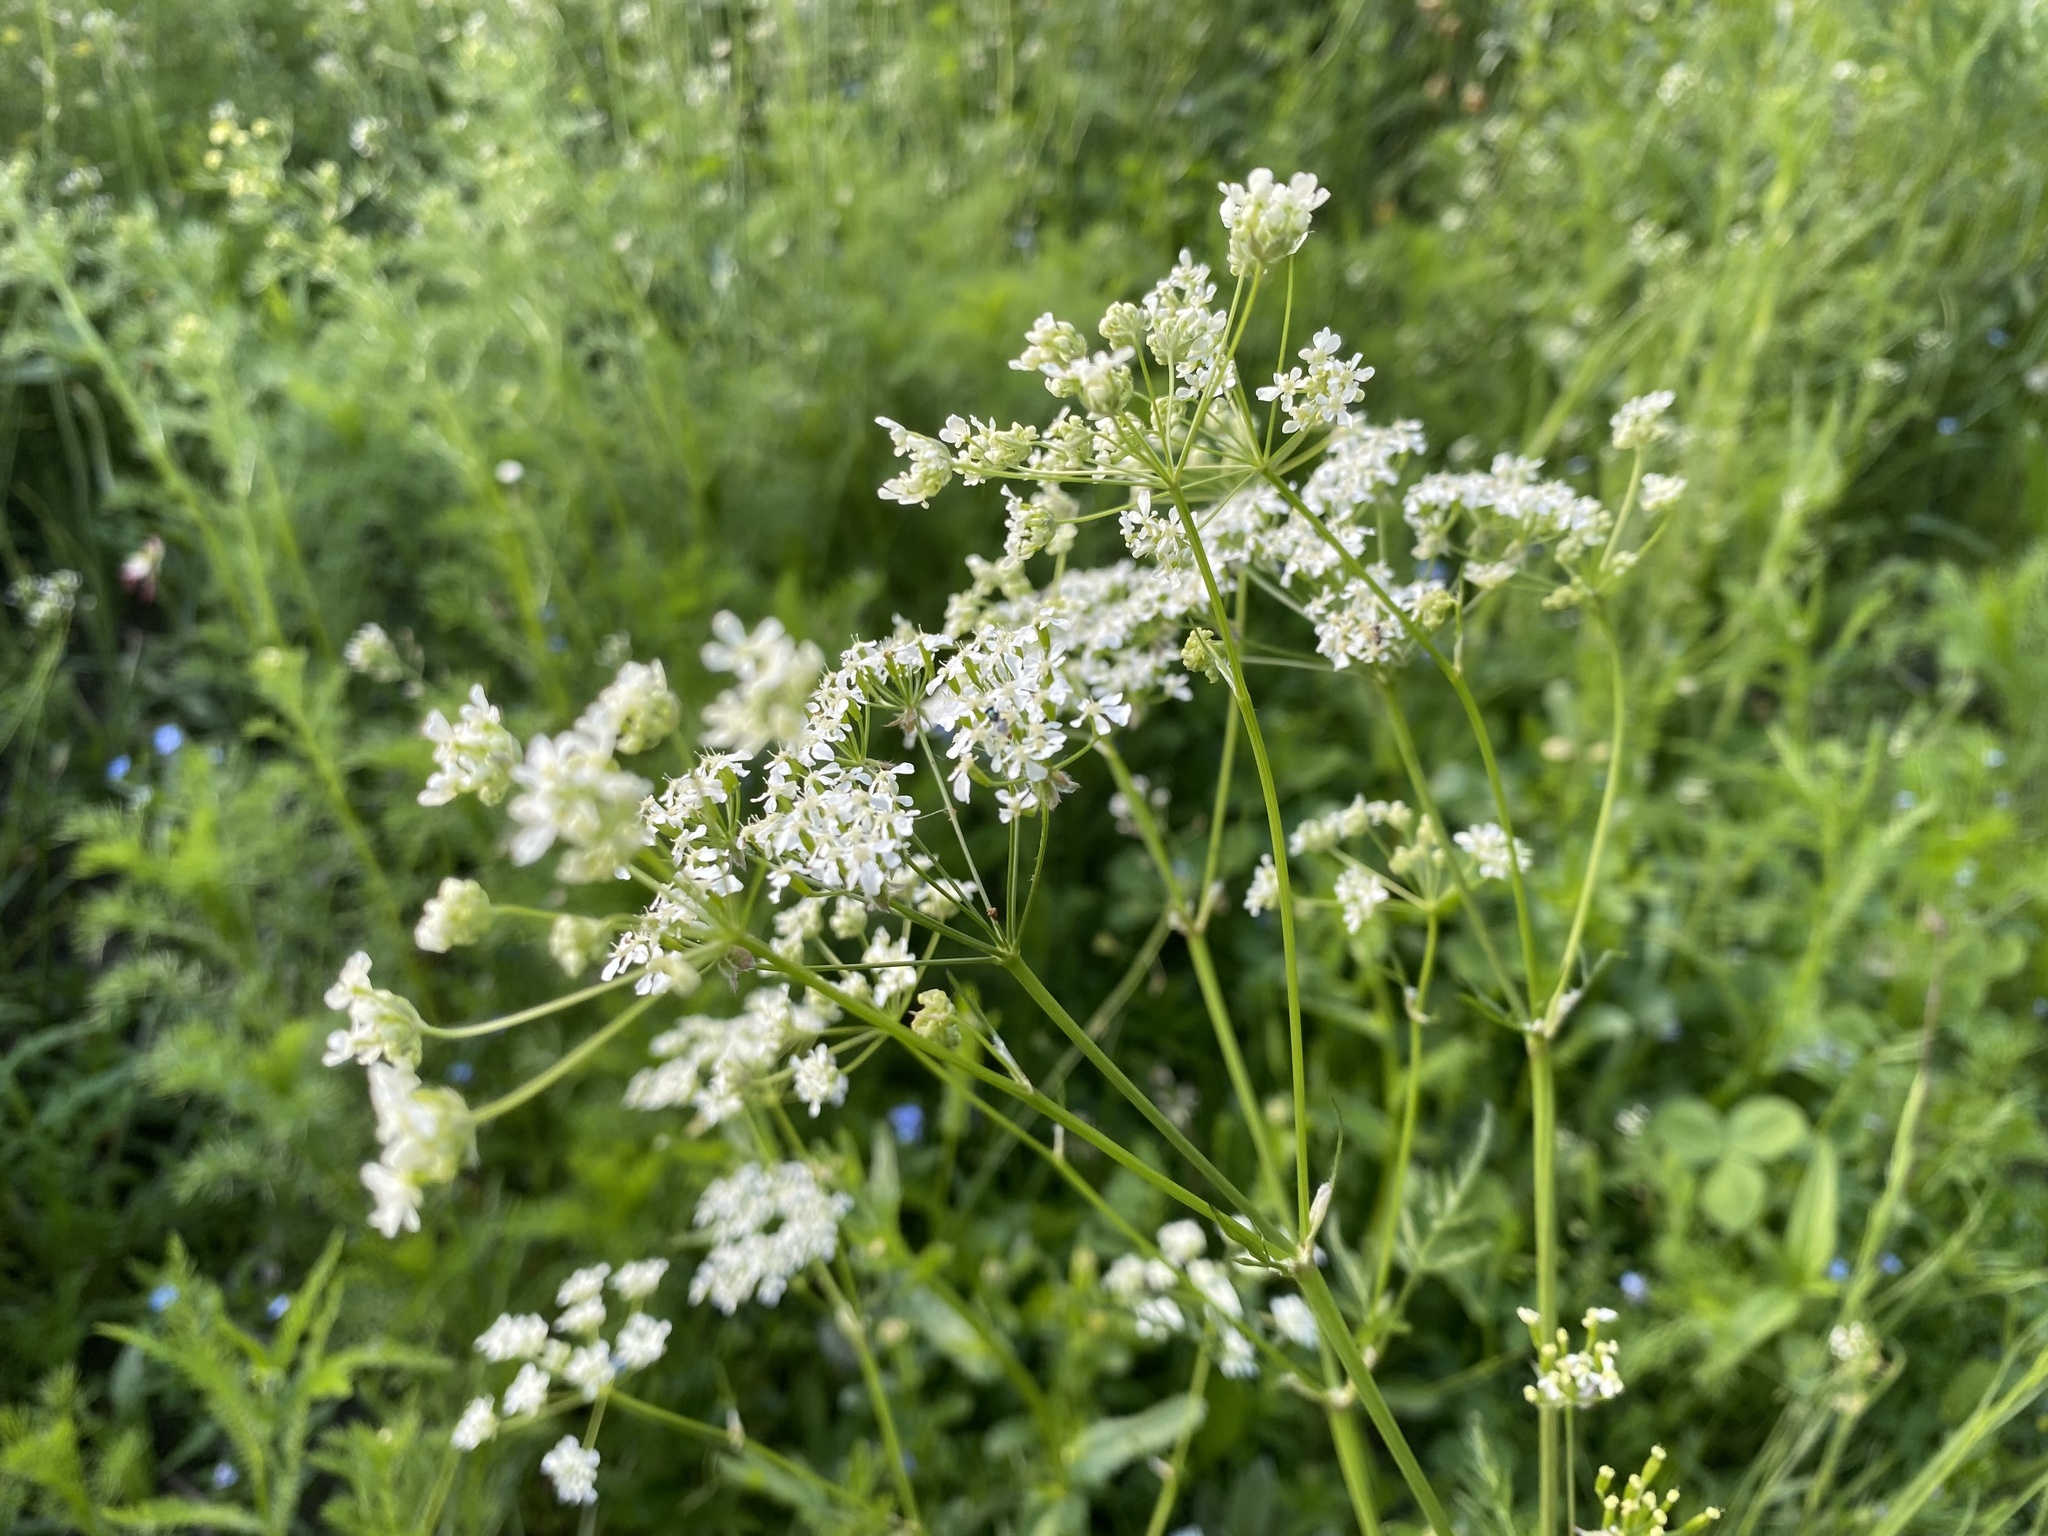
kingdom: Plantae
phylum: Tracheophyta
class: Magnoliopsida
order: Apiales
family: Apiaceae
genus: Anthriscus
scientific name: Anthriscus sylvestris
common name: Cow parsley
